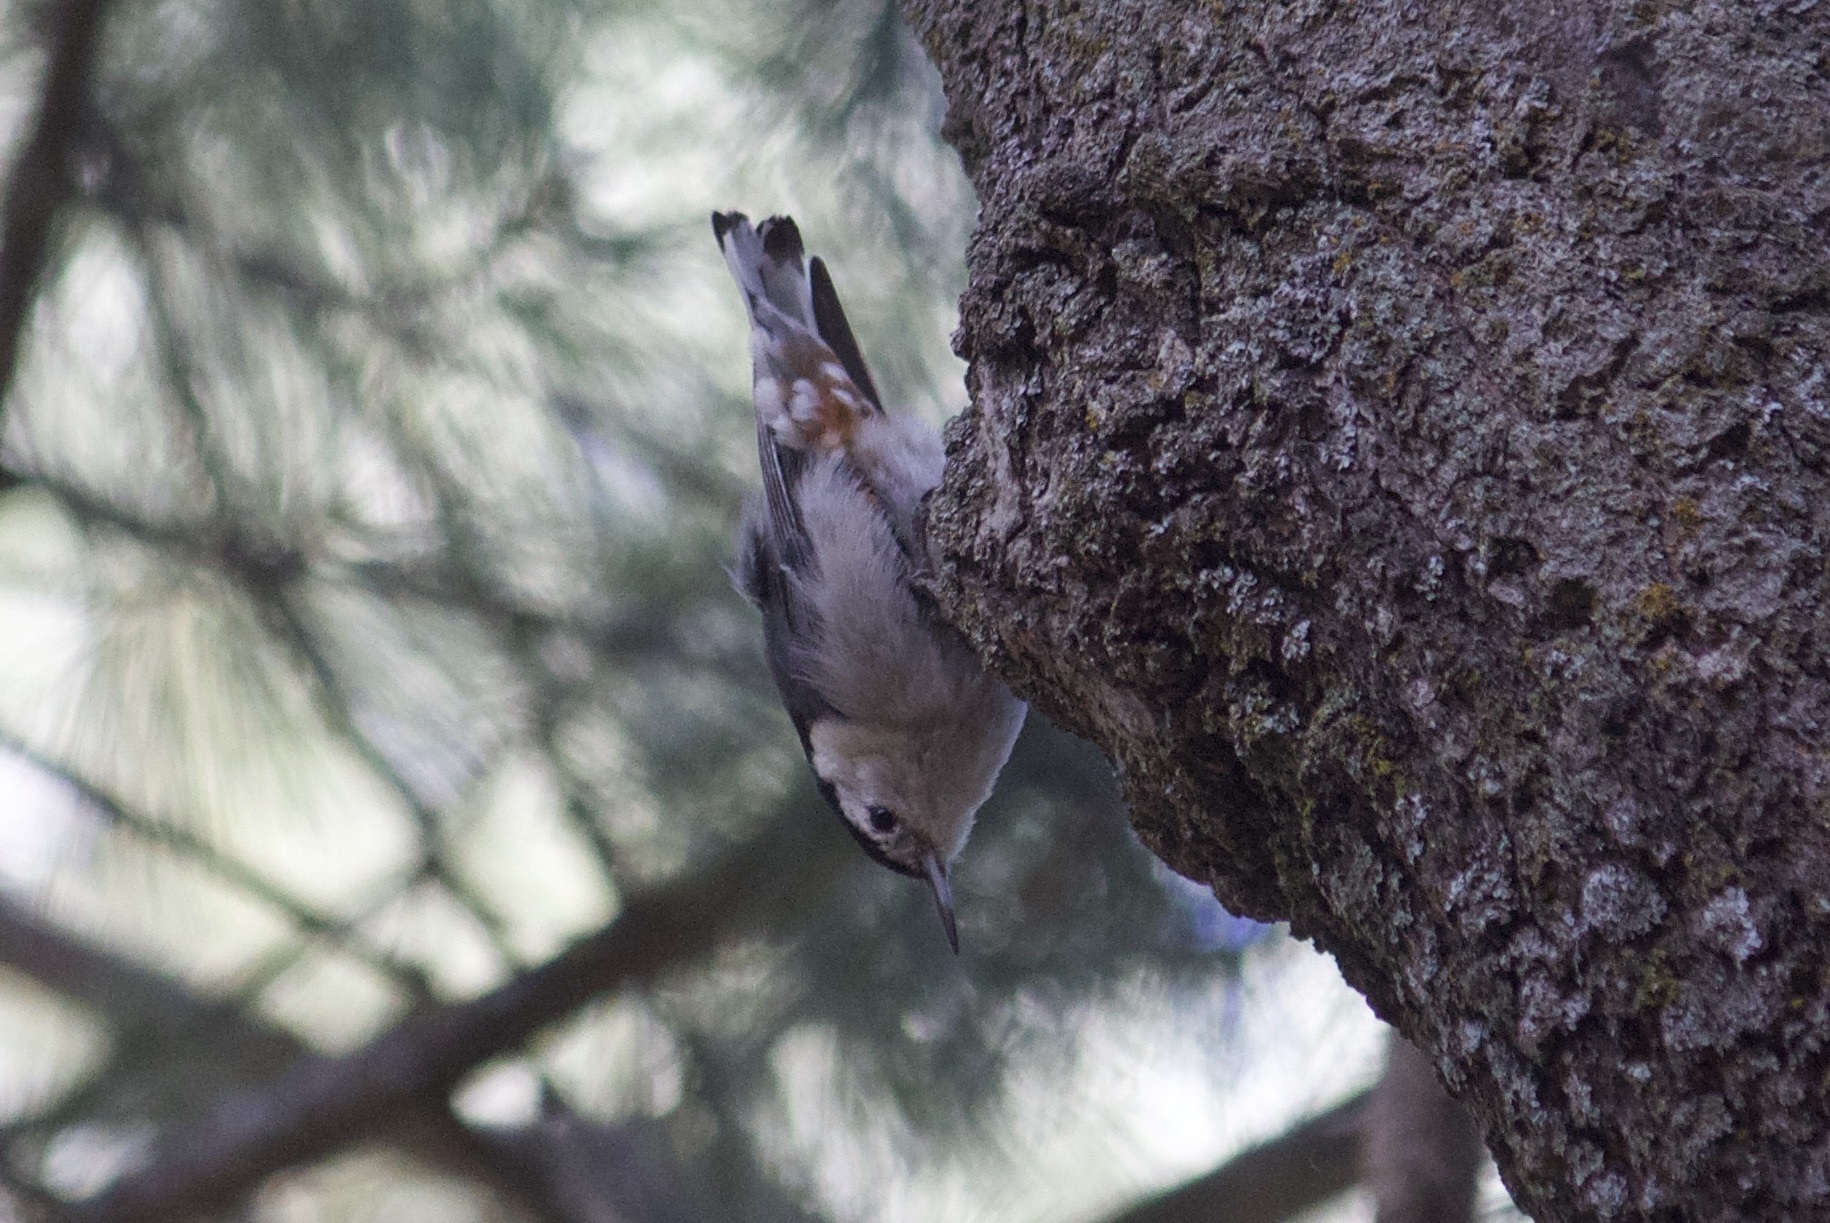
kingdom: Animalia
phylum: Chordata
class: Aves
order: Passeriformes
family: Sittidae
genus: Sitta
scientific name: Sitta carolinensis
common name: White-breasted nuthatch
